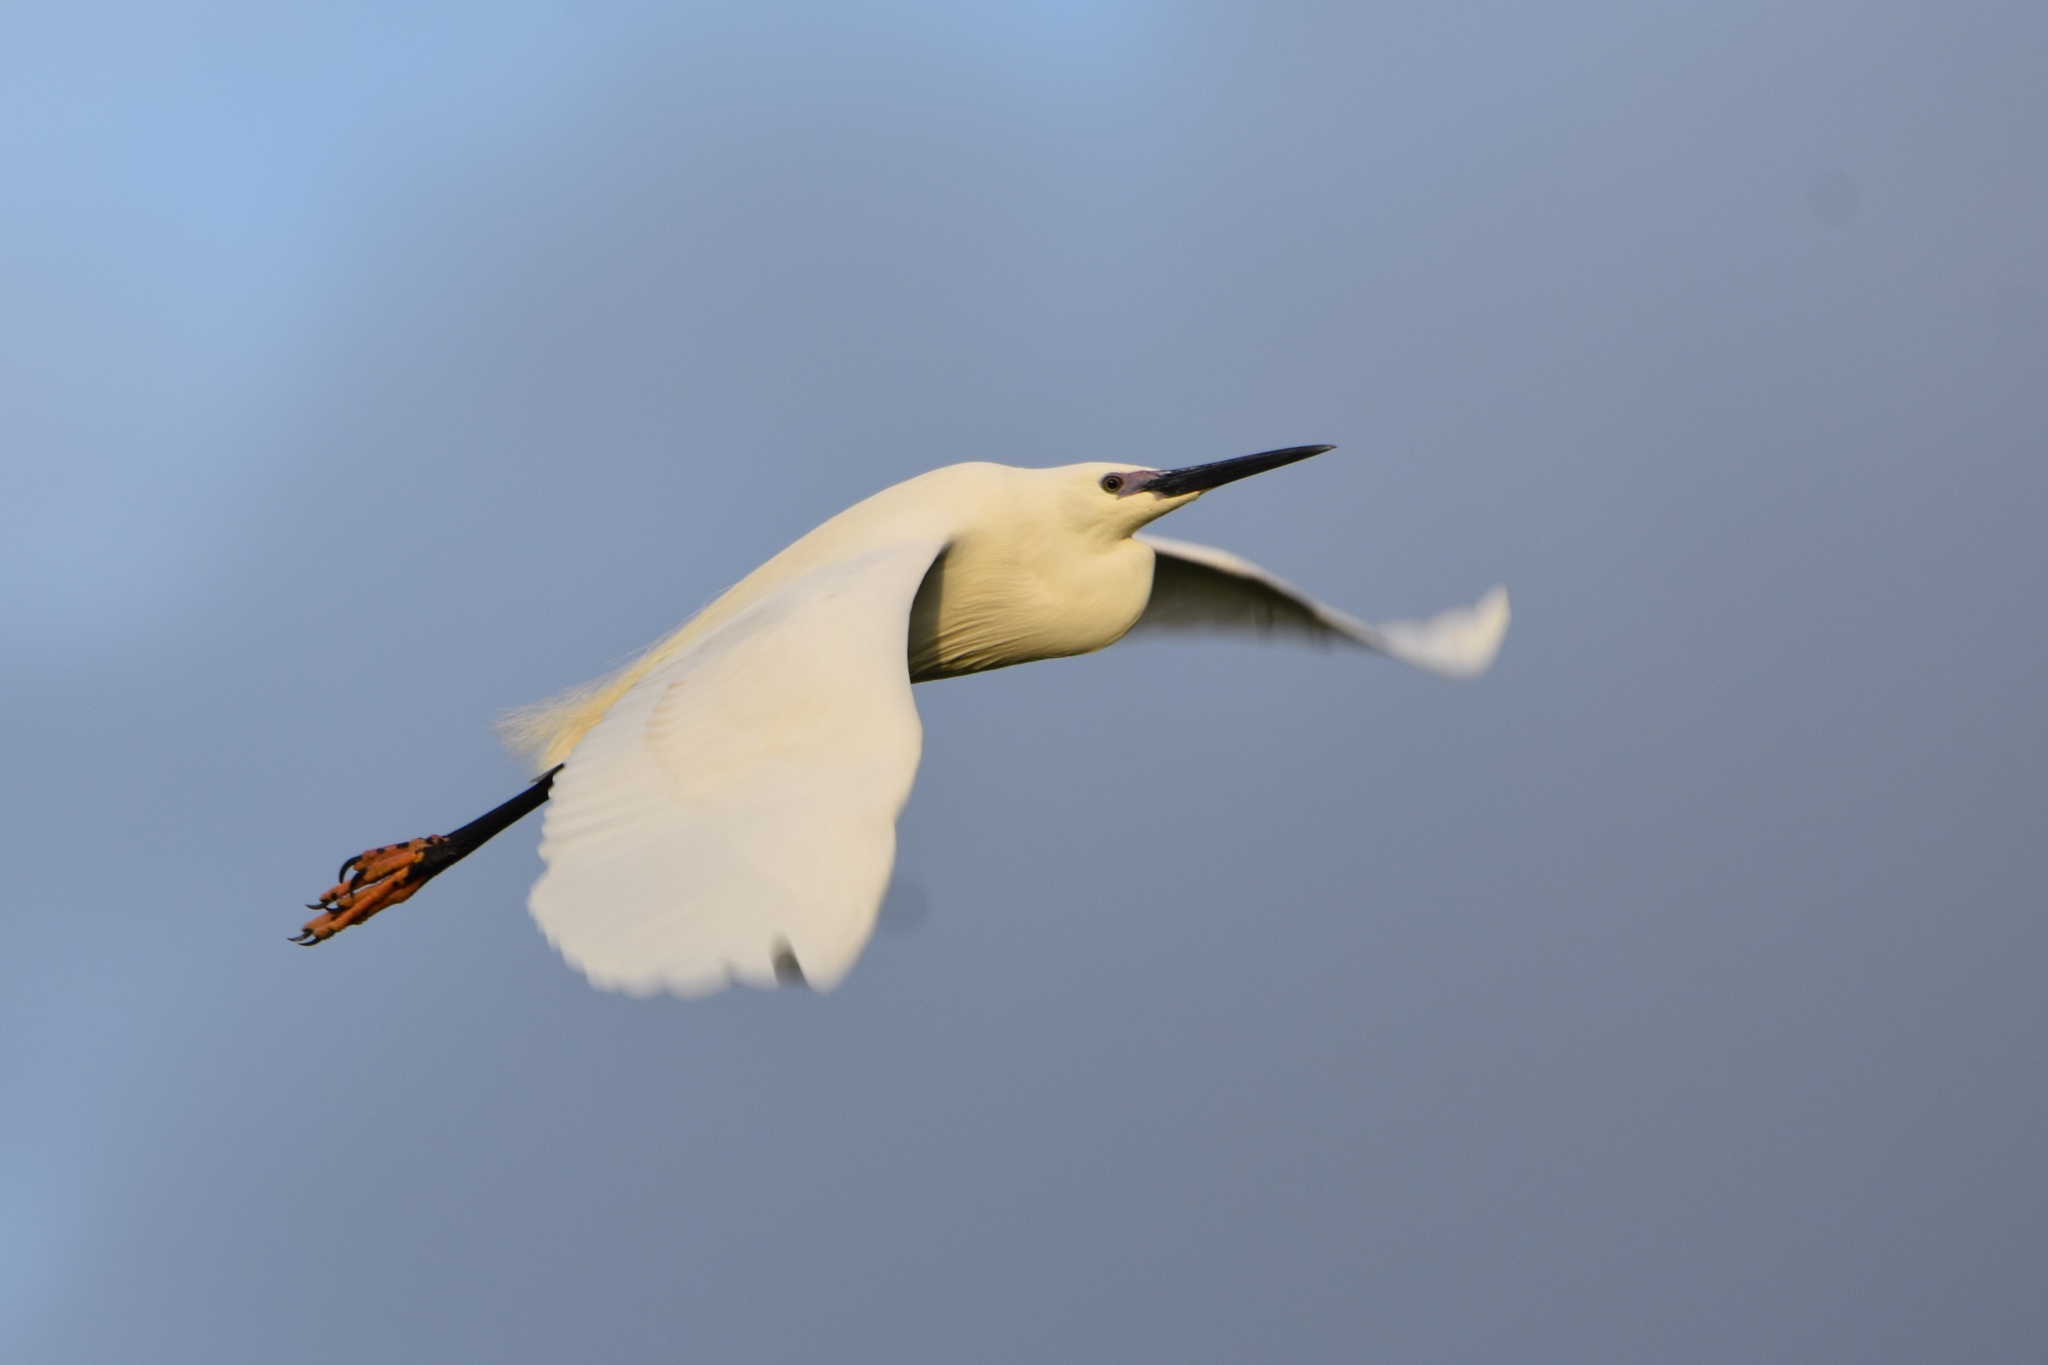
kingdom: Animalia
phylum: Chordata
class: Aves
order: Pelecaniformes
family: Ardeidae
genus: Egretta
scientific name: Egretta garzetta
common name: Little egret
